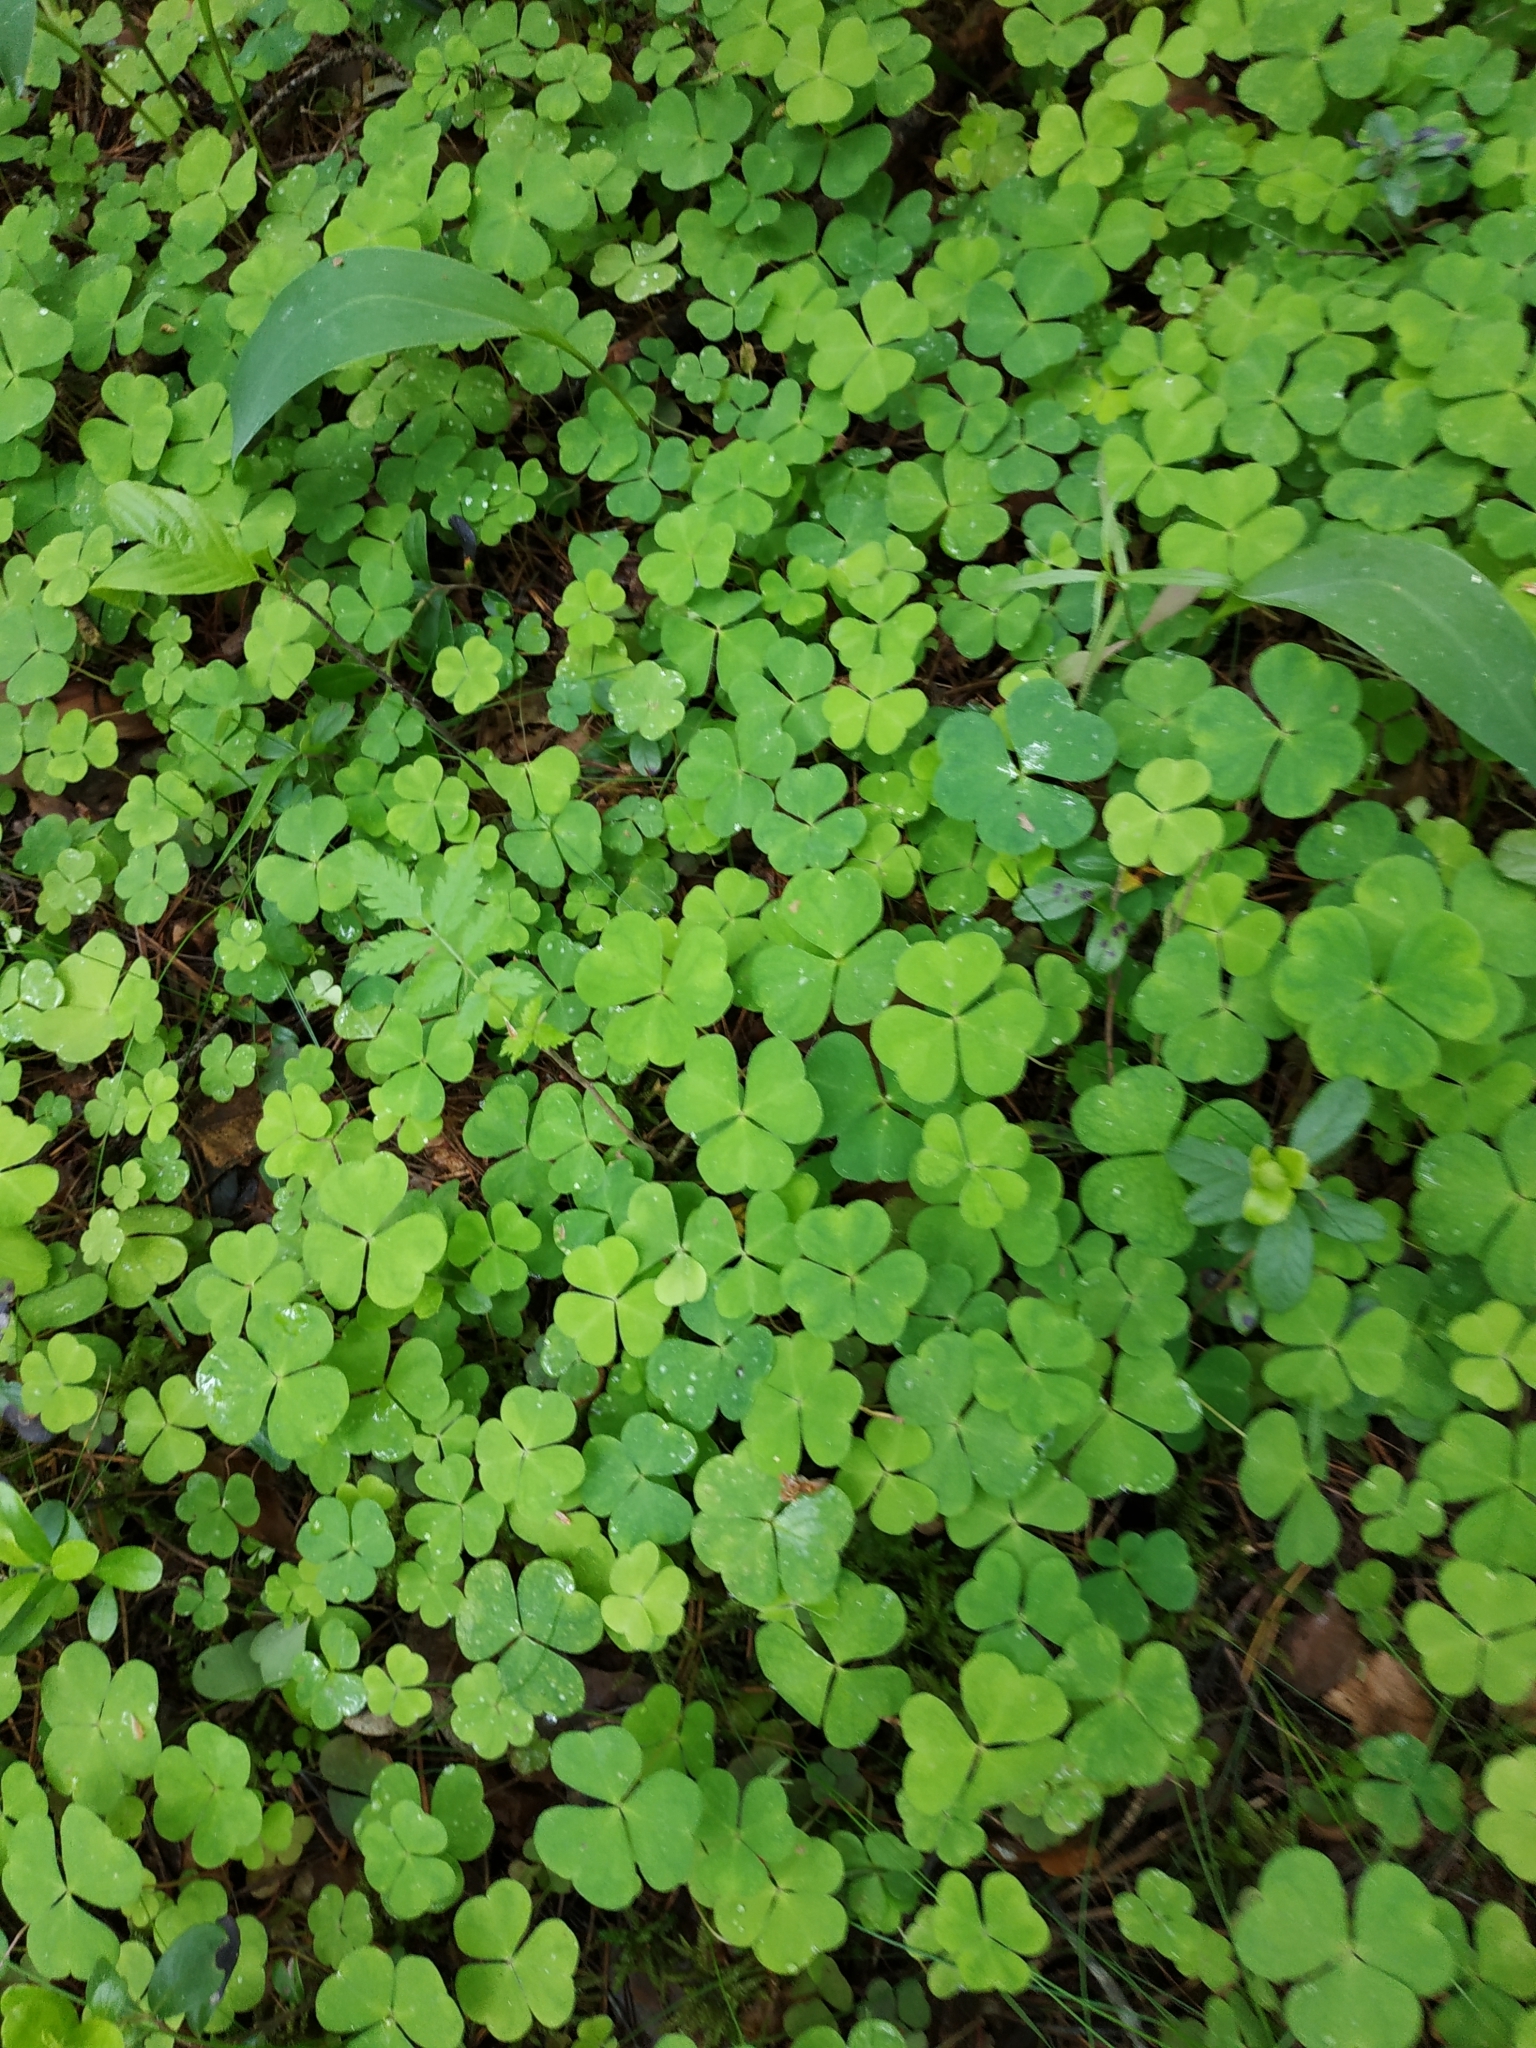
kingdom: Plantae
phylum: Tracheophyta
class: Magnoliopsida
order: Oxalidales
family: Oxalidaceae
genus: Oxalis
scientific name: Oxalis acetosella
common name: Wood-sorrel
